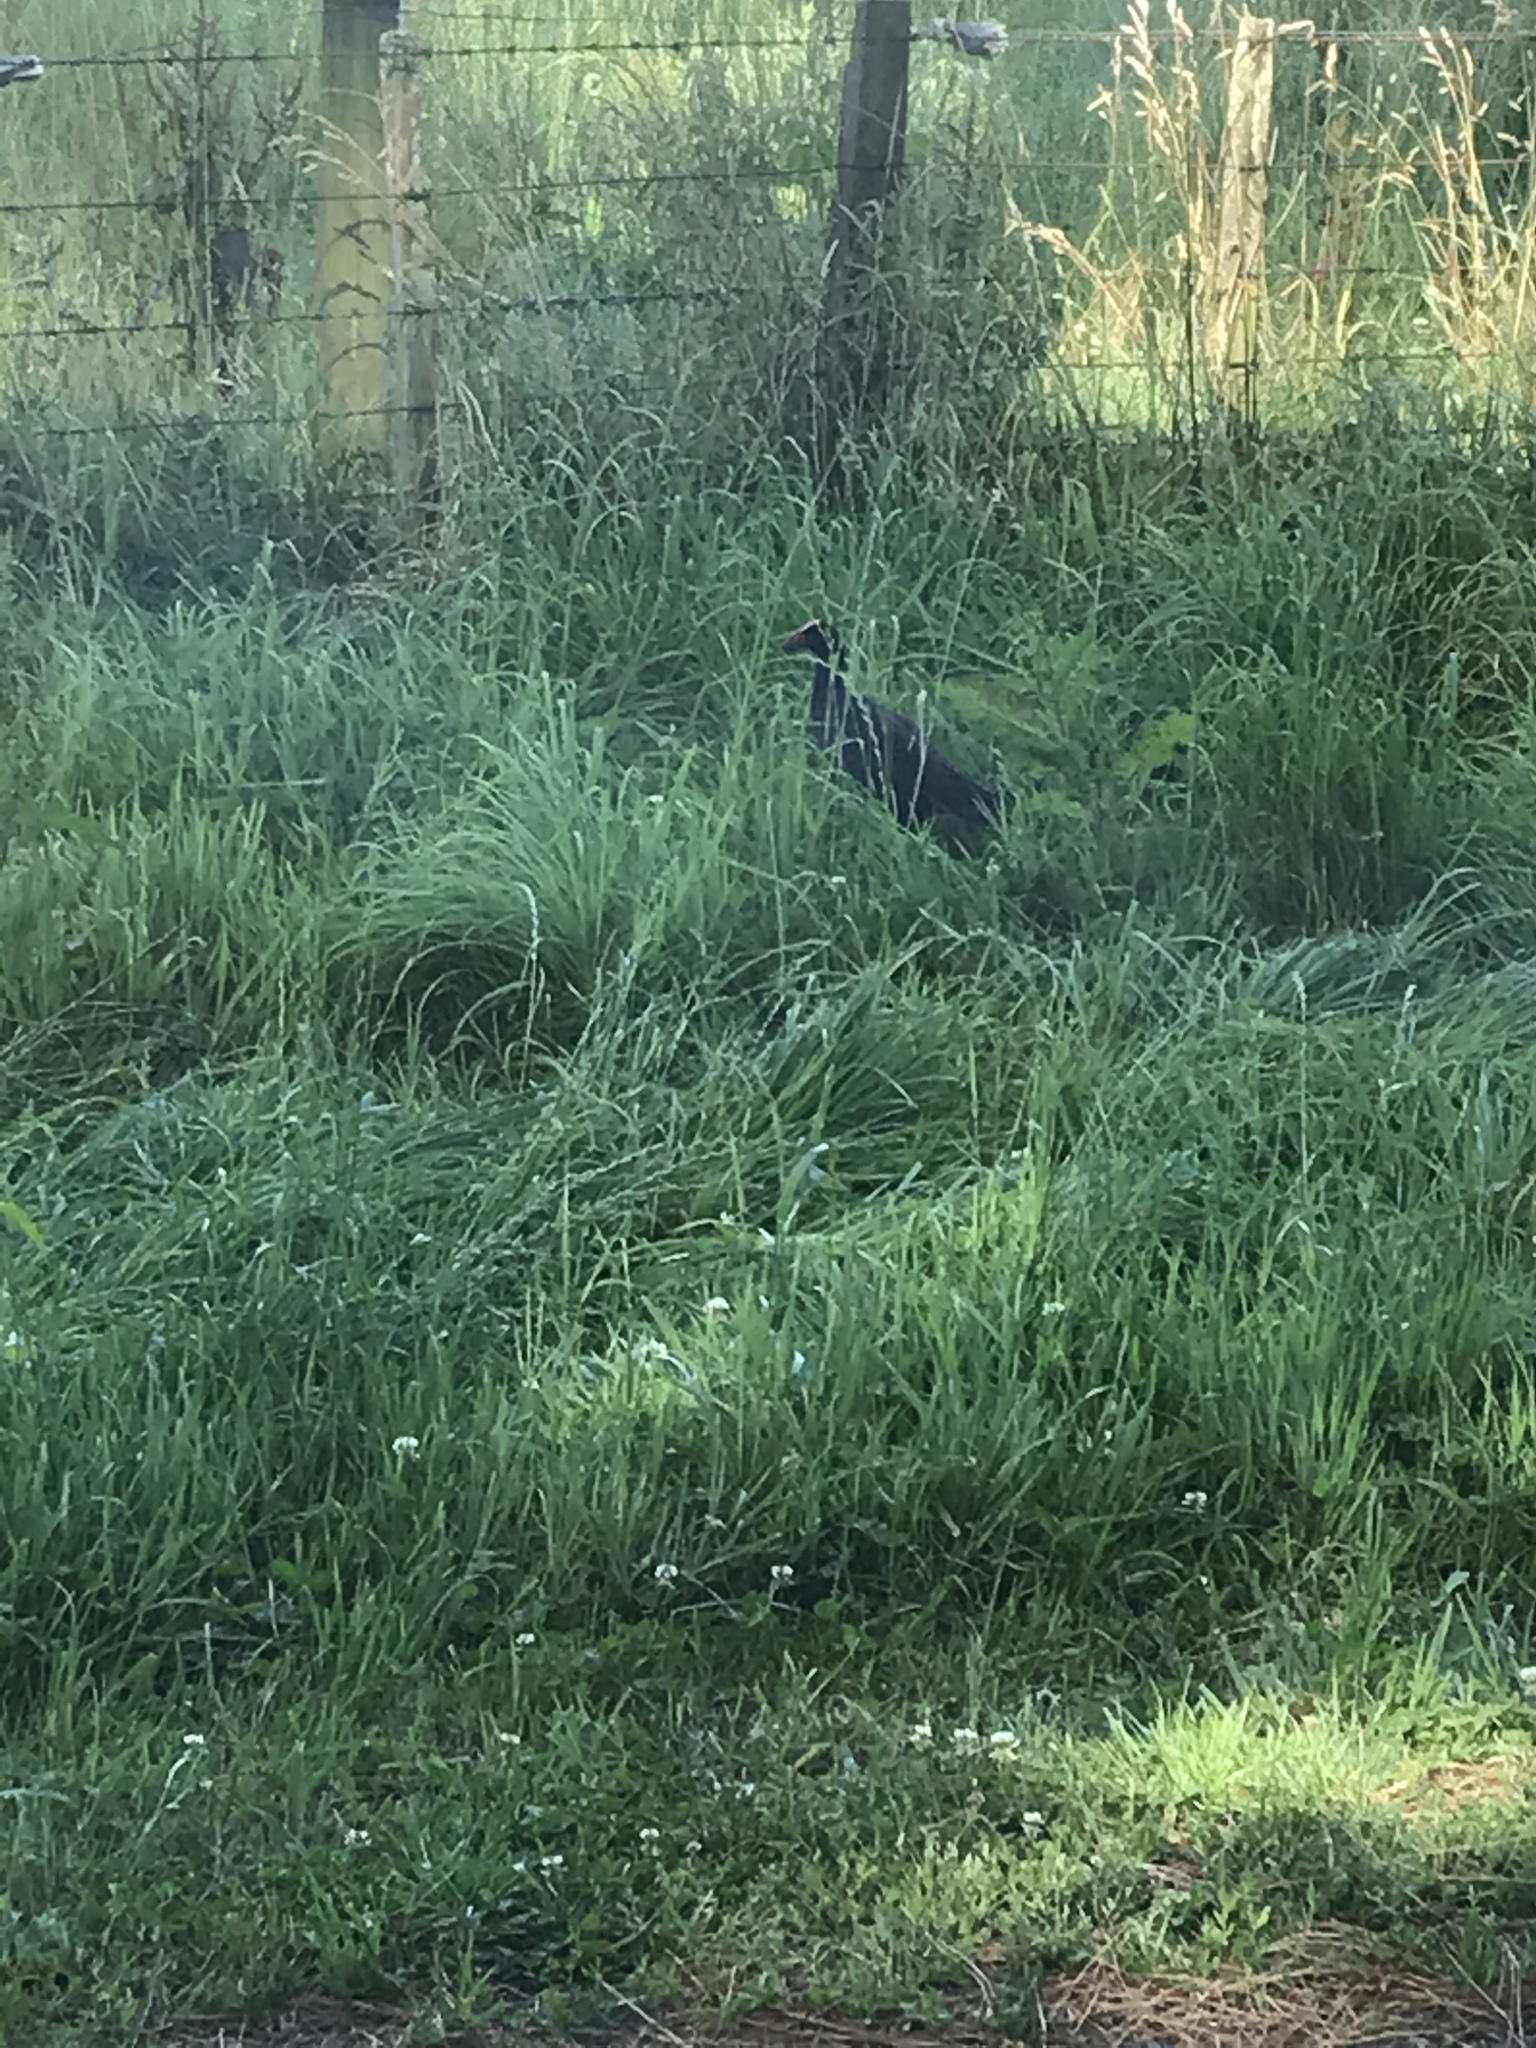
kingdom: Animalia
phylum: Chordata
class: Aves
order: Gruiformes
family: Rallidae
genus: Porphyrio
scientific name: Porphyrio melanotus
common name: Australasian swamphen
